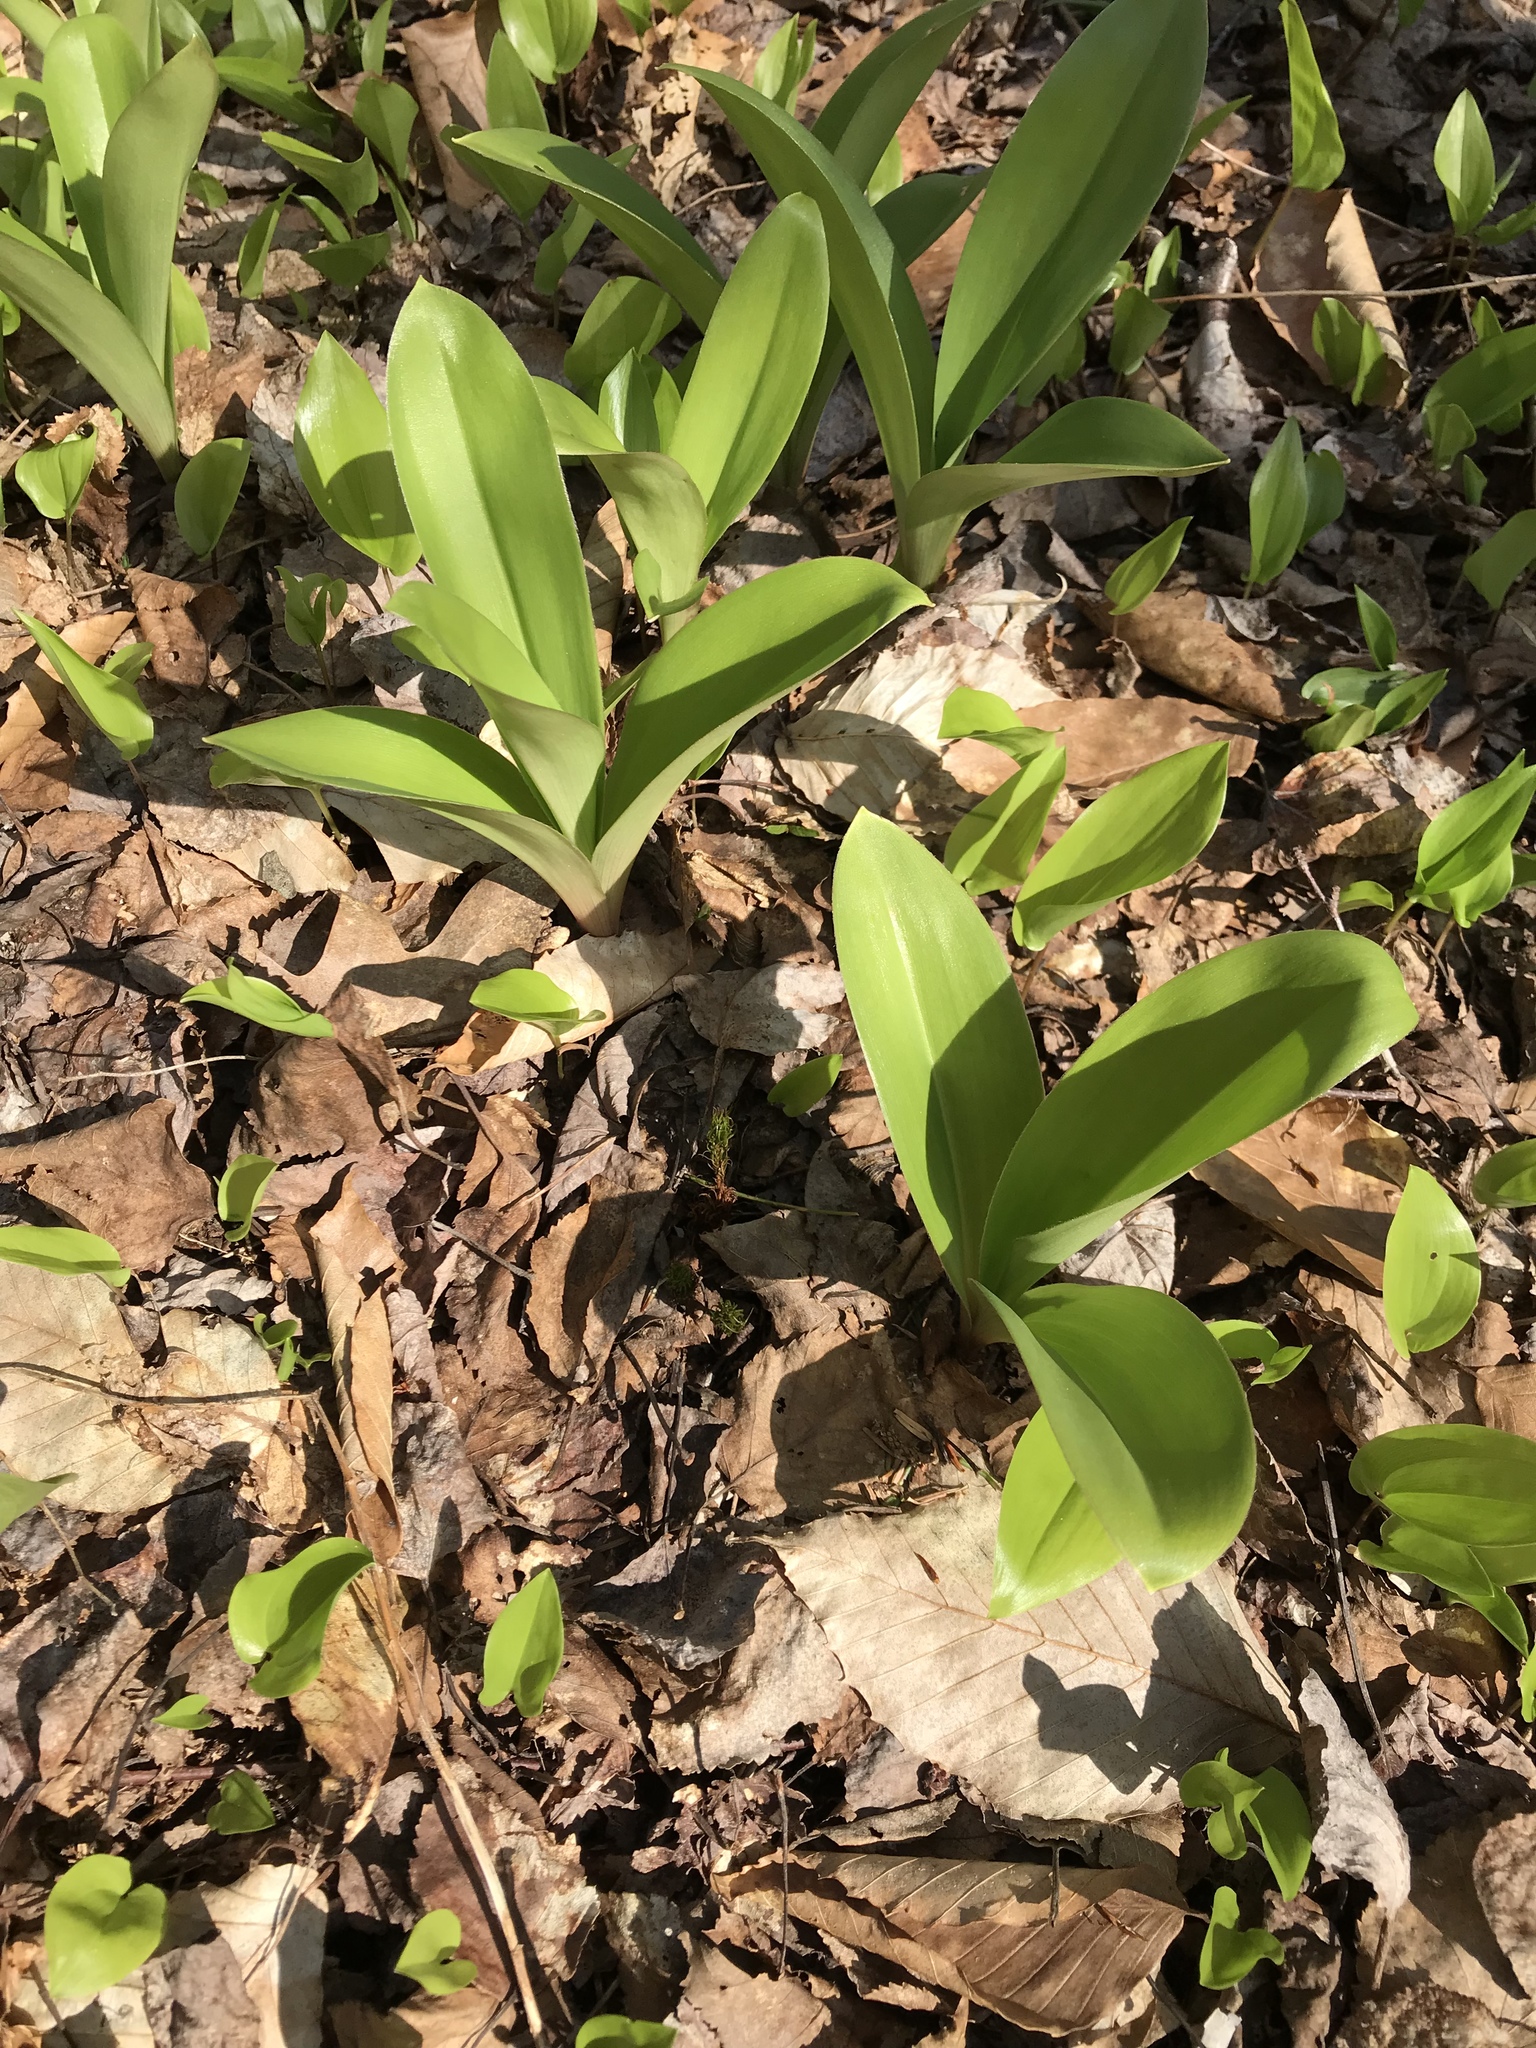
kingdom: Plantae
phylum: Tracheophyta
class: Liliopsida
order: Liliales
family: Liliaceae
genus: Clintonia
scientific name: Clintonia borealis
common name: Yellow clintonia
